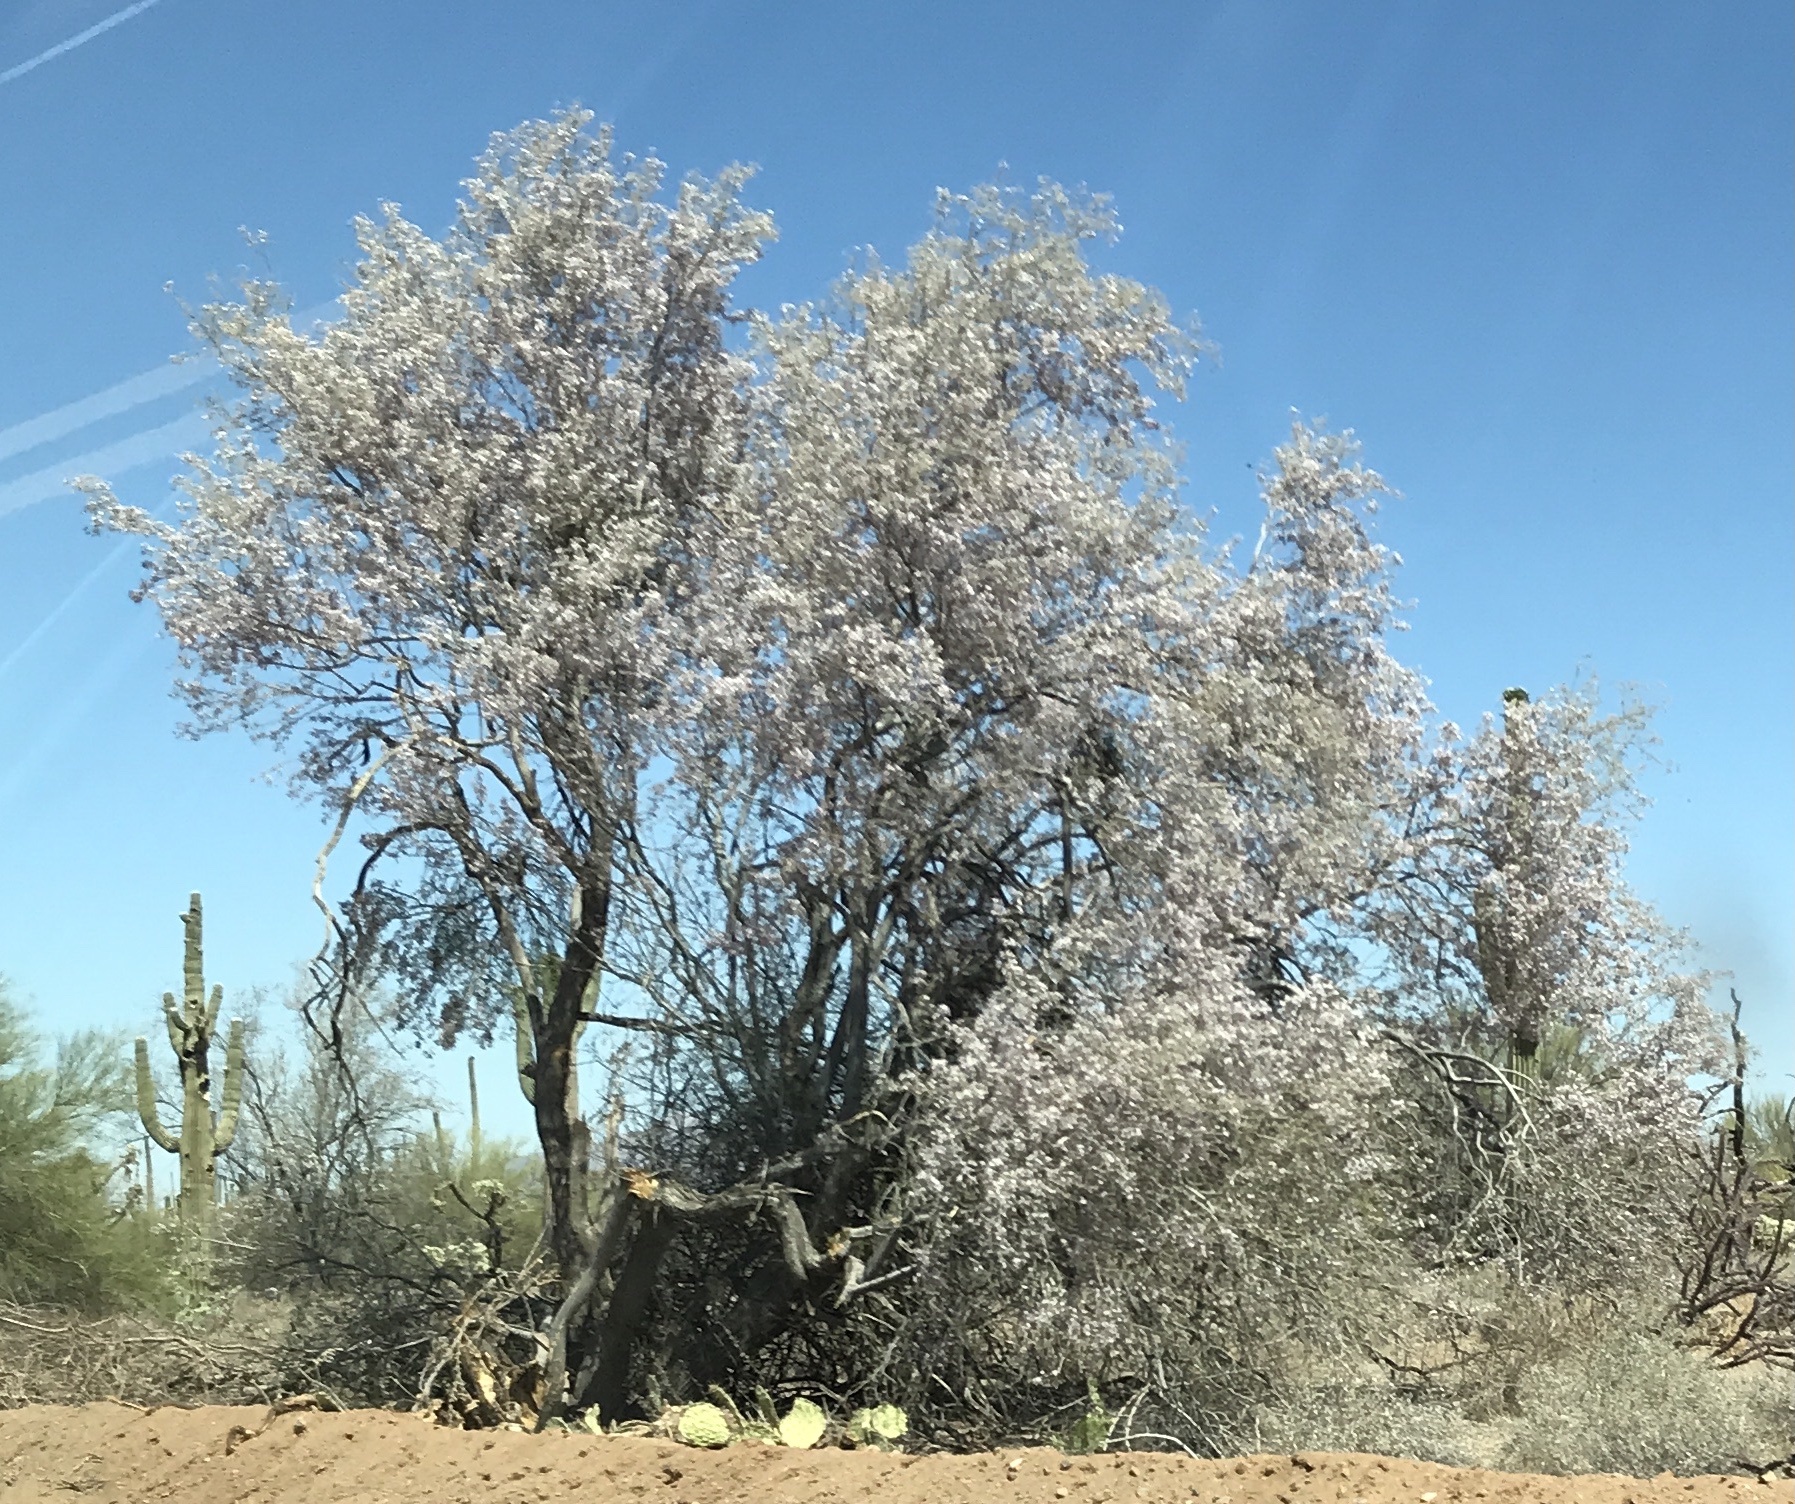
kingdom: Plantae
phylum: Tracheophyta
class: Magnoliopsida
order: Fabales
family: Fabaceae
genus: Olneya
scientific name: Olneya tesota
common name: Desert ironwood
